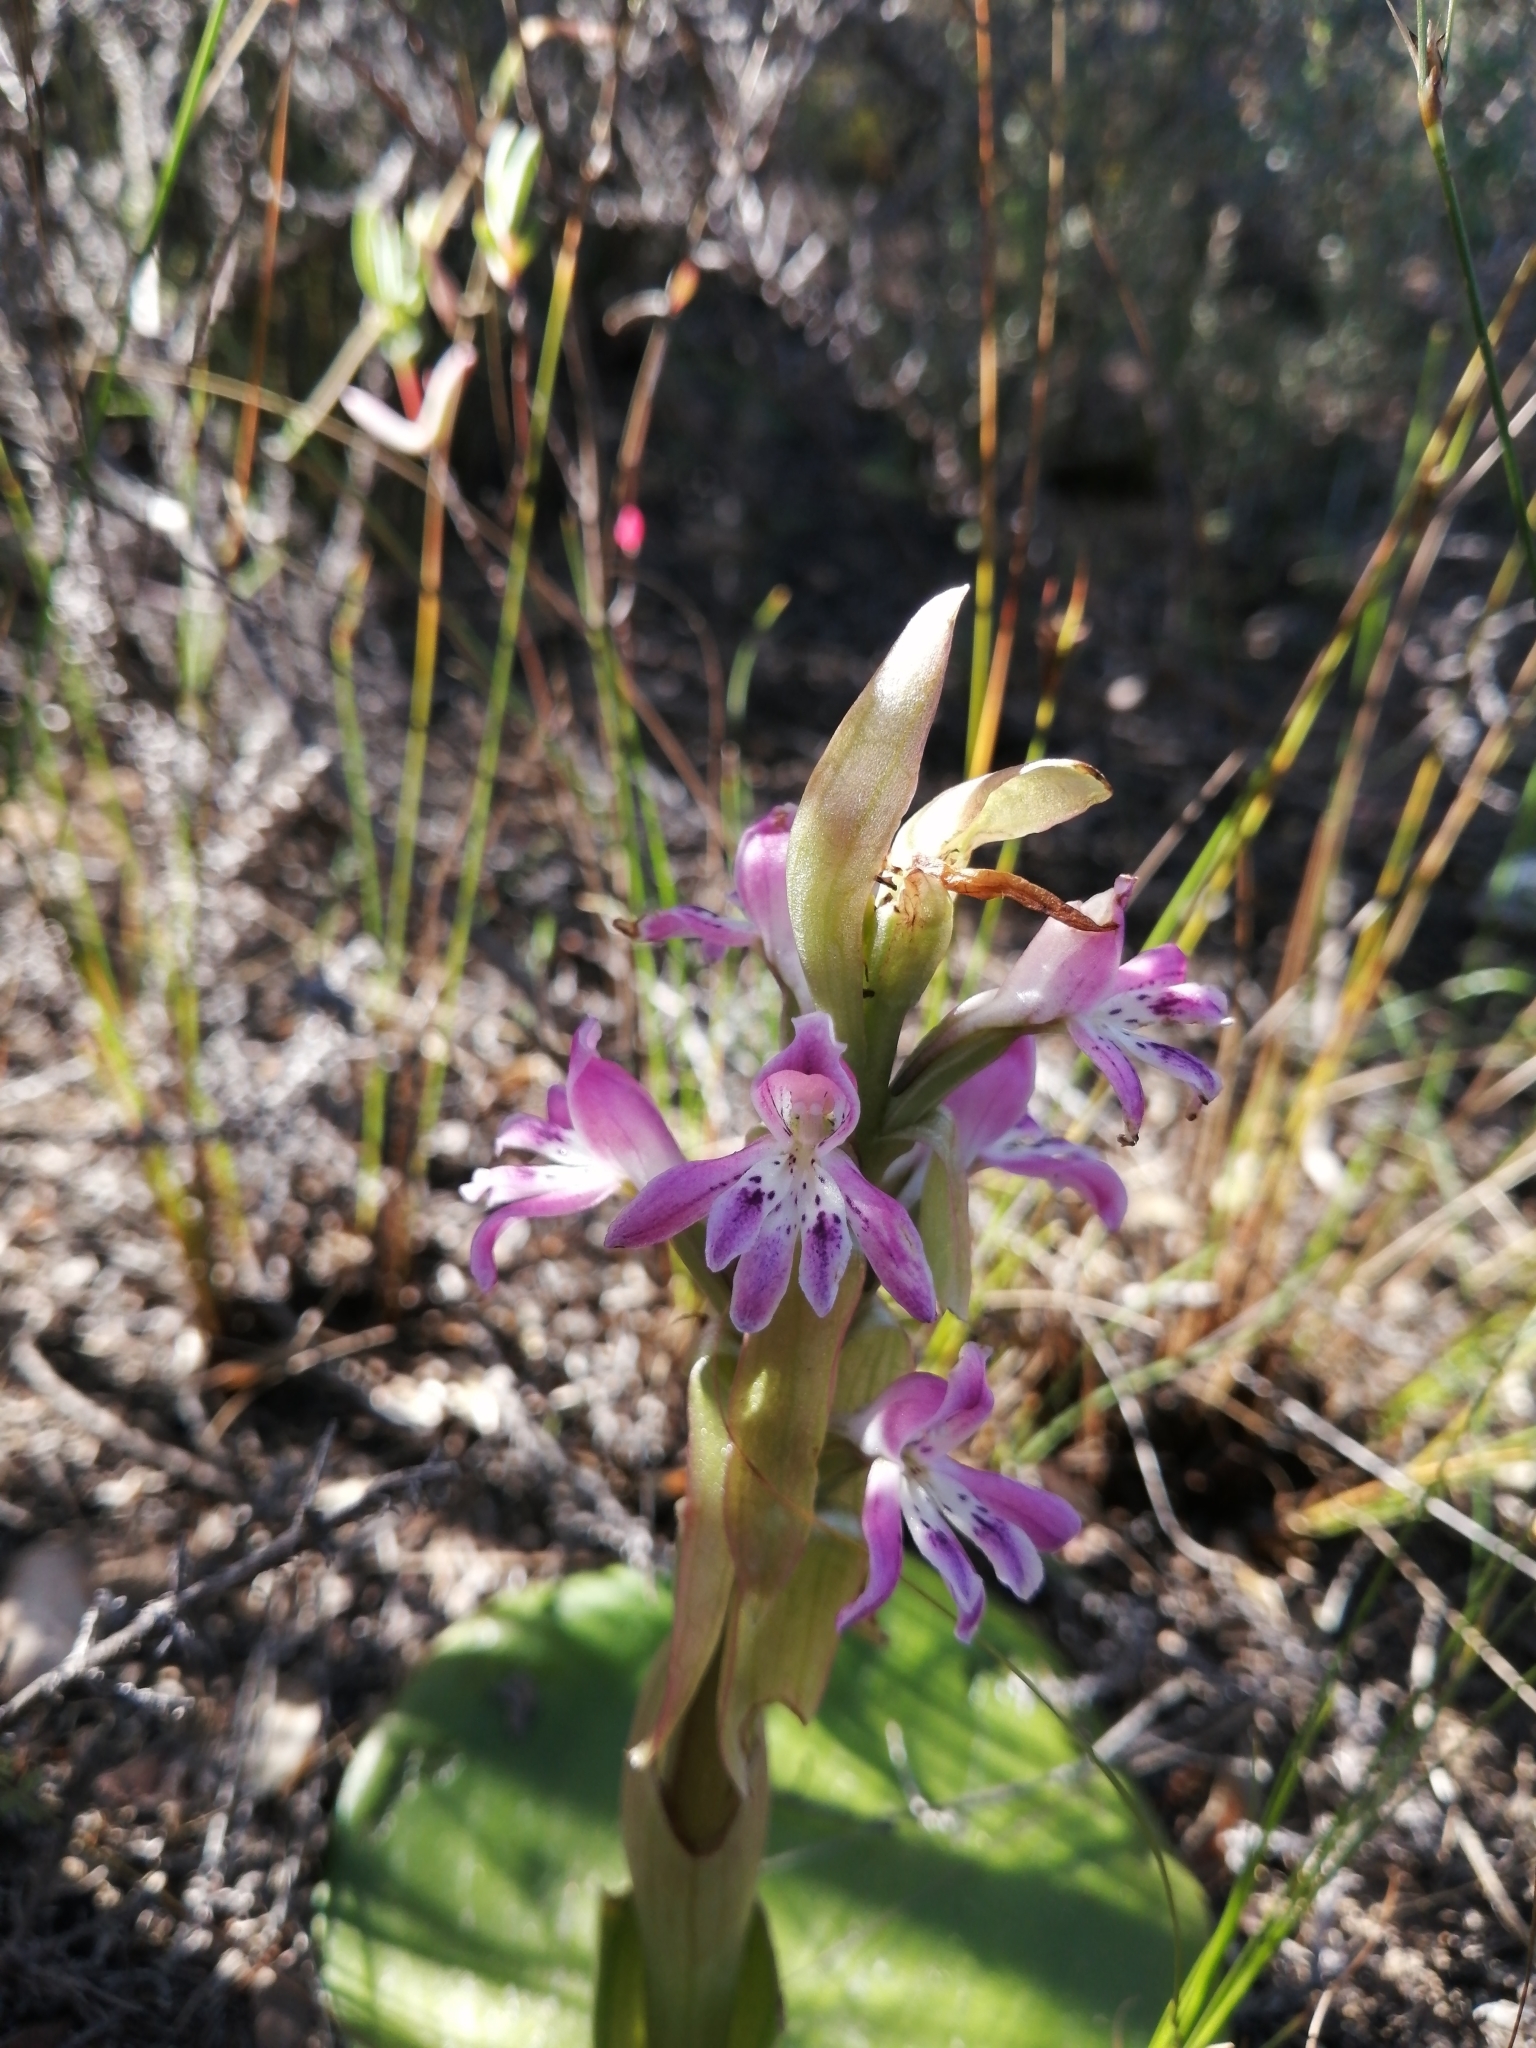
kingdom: Plantae
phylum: Tracheophyta
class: Liliopsida
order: Asparagales
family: Orchidaceae
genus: Satyrium
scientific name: Satyrium erectum
